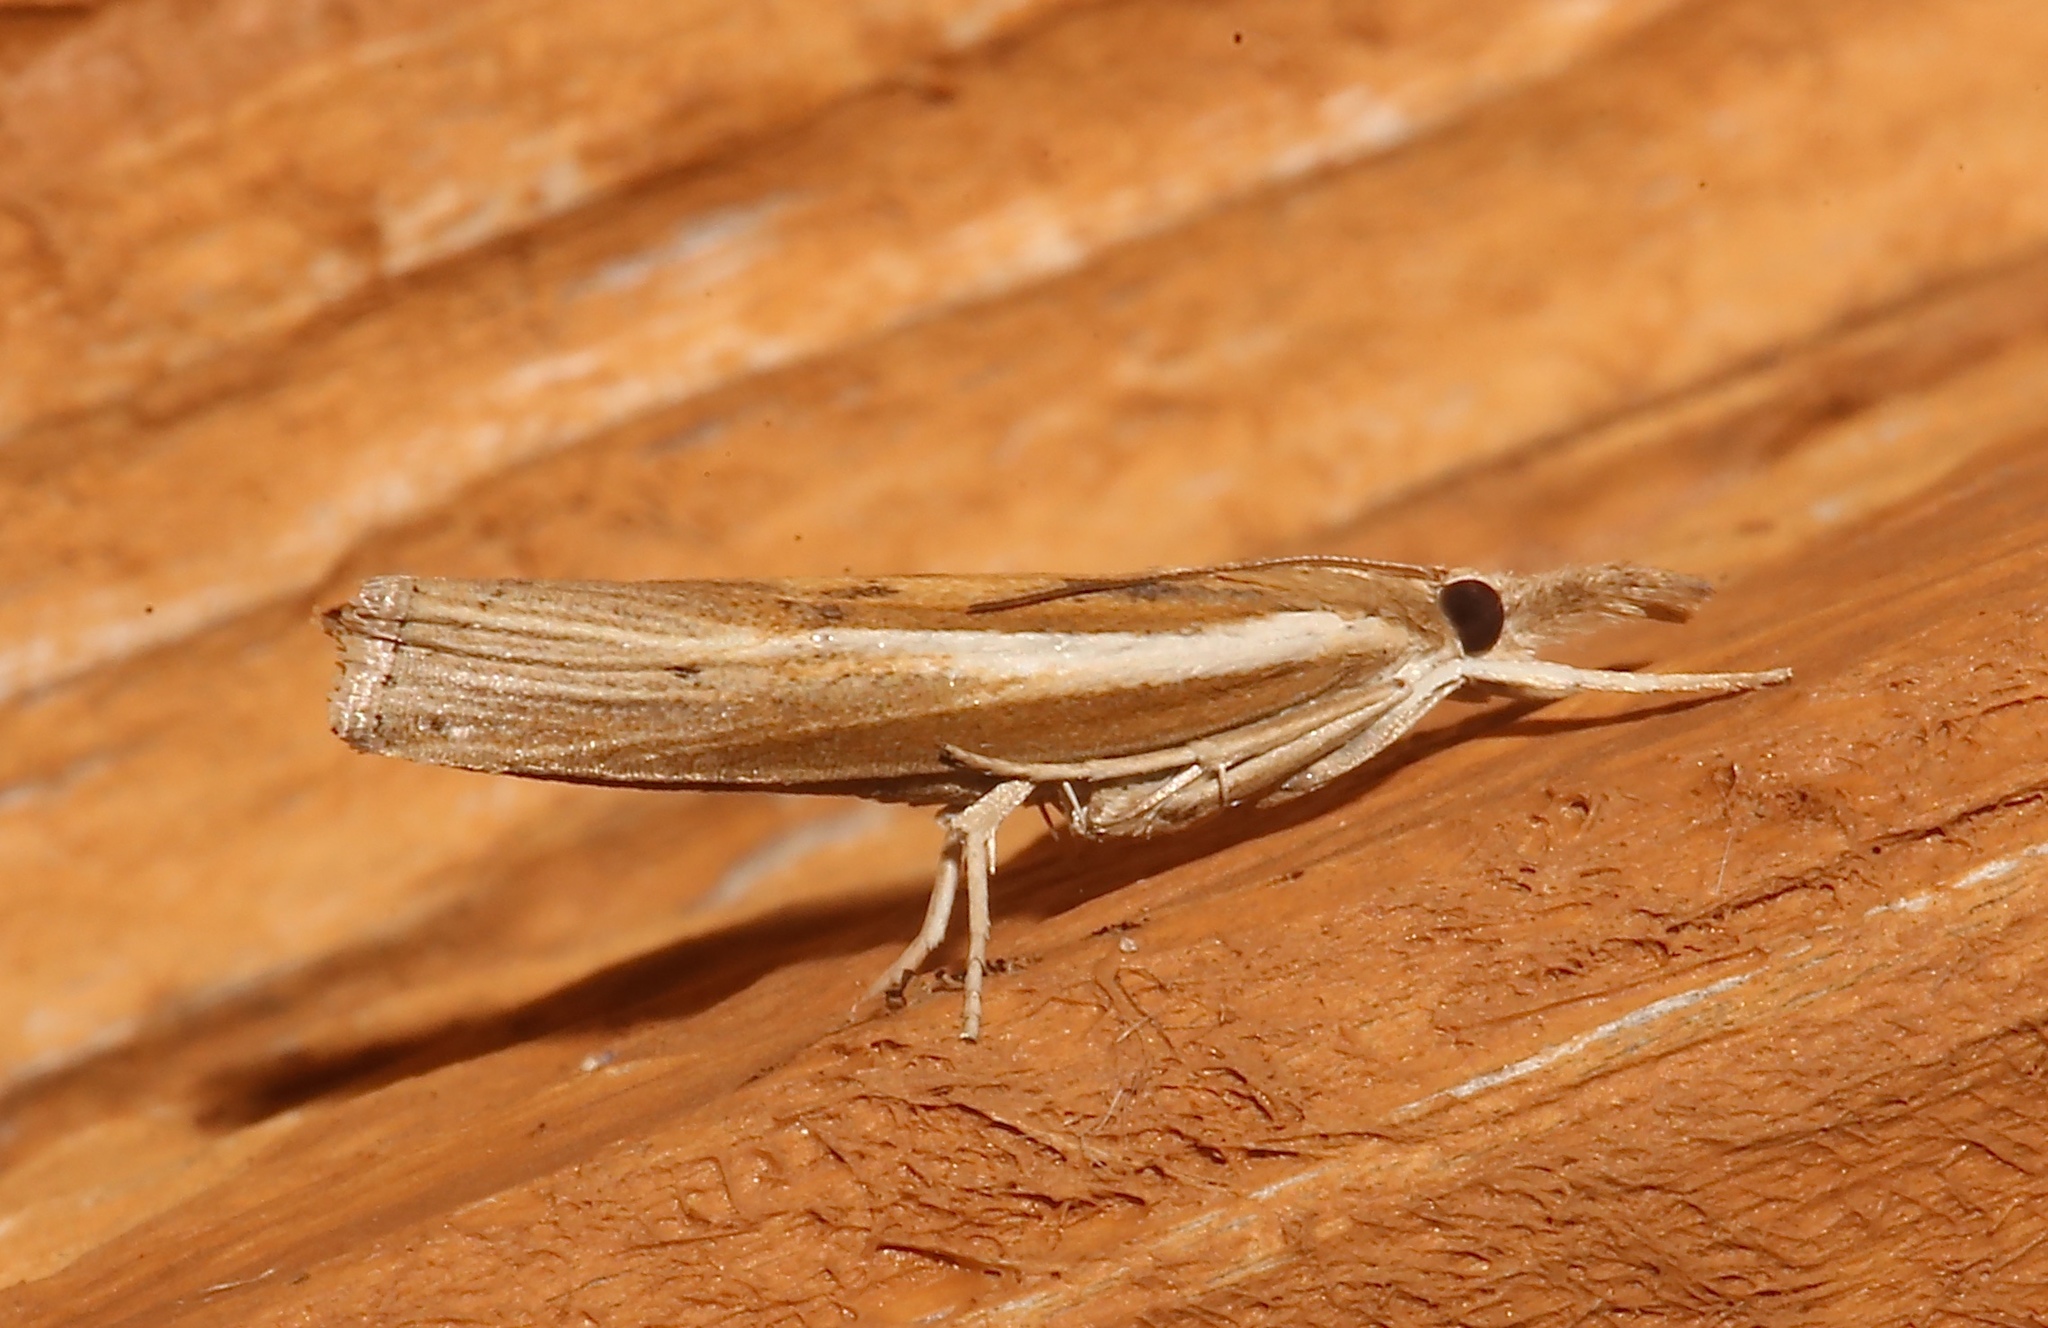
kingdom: Animalia
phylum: Arthropoda
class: Insecta
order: Lepidoptera
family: Crambidae
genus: Fissicrambus
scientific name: Fissicrambus fissiradiellus
